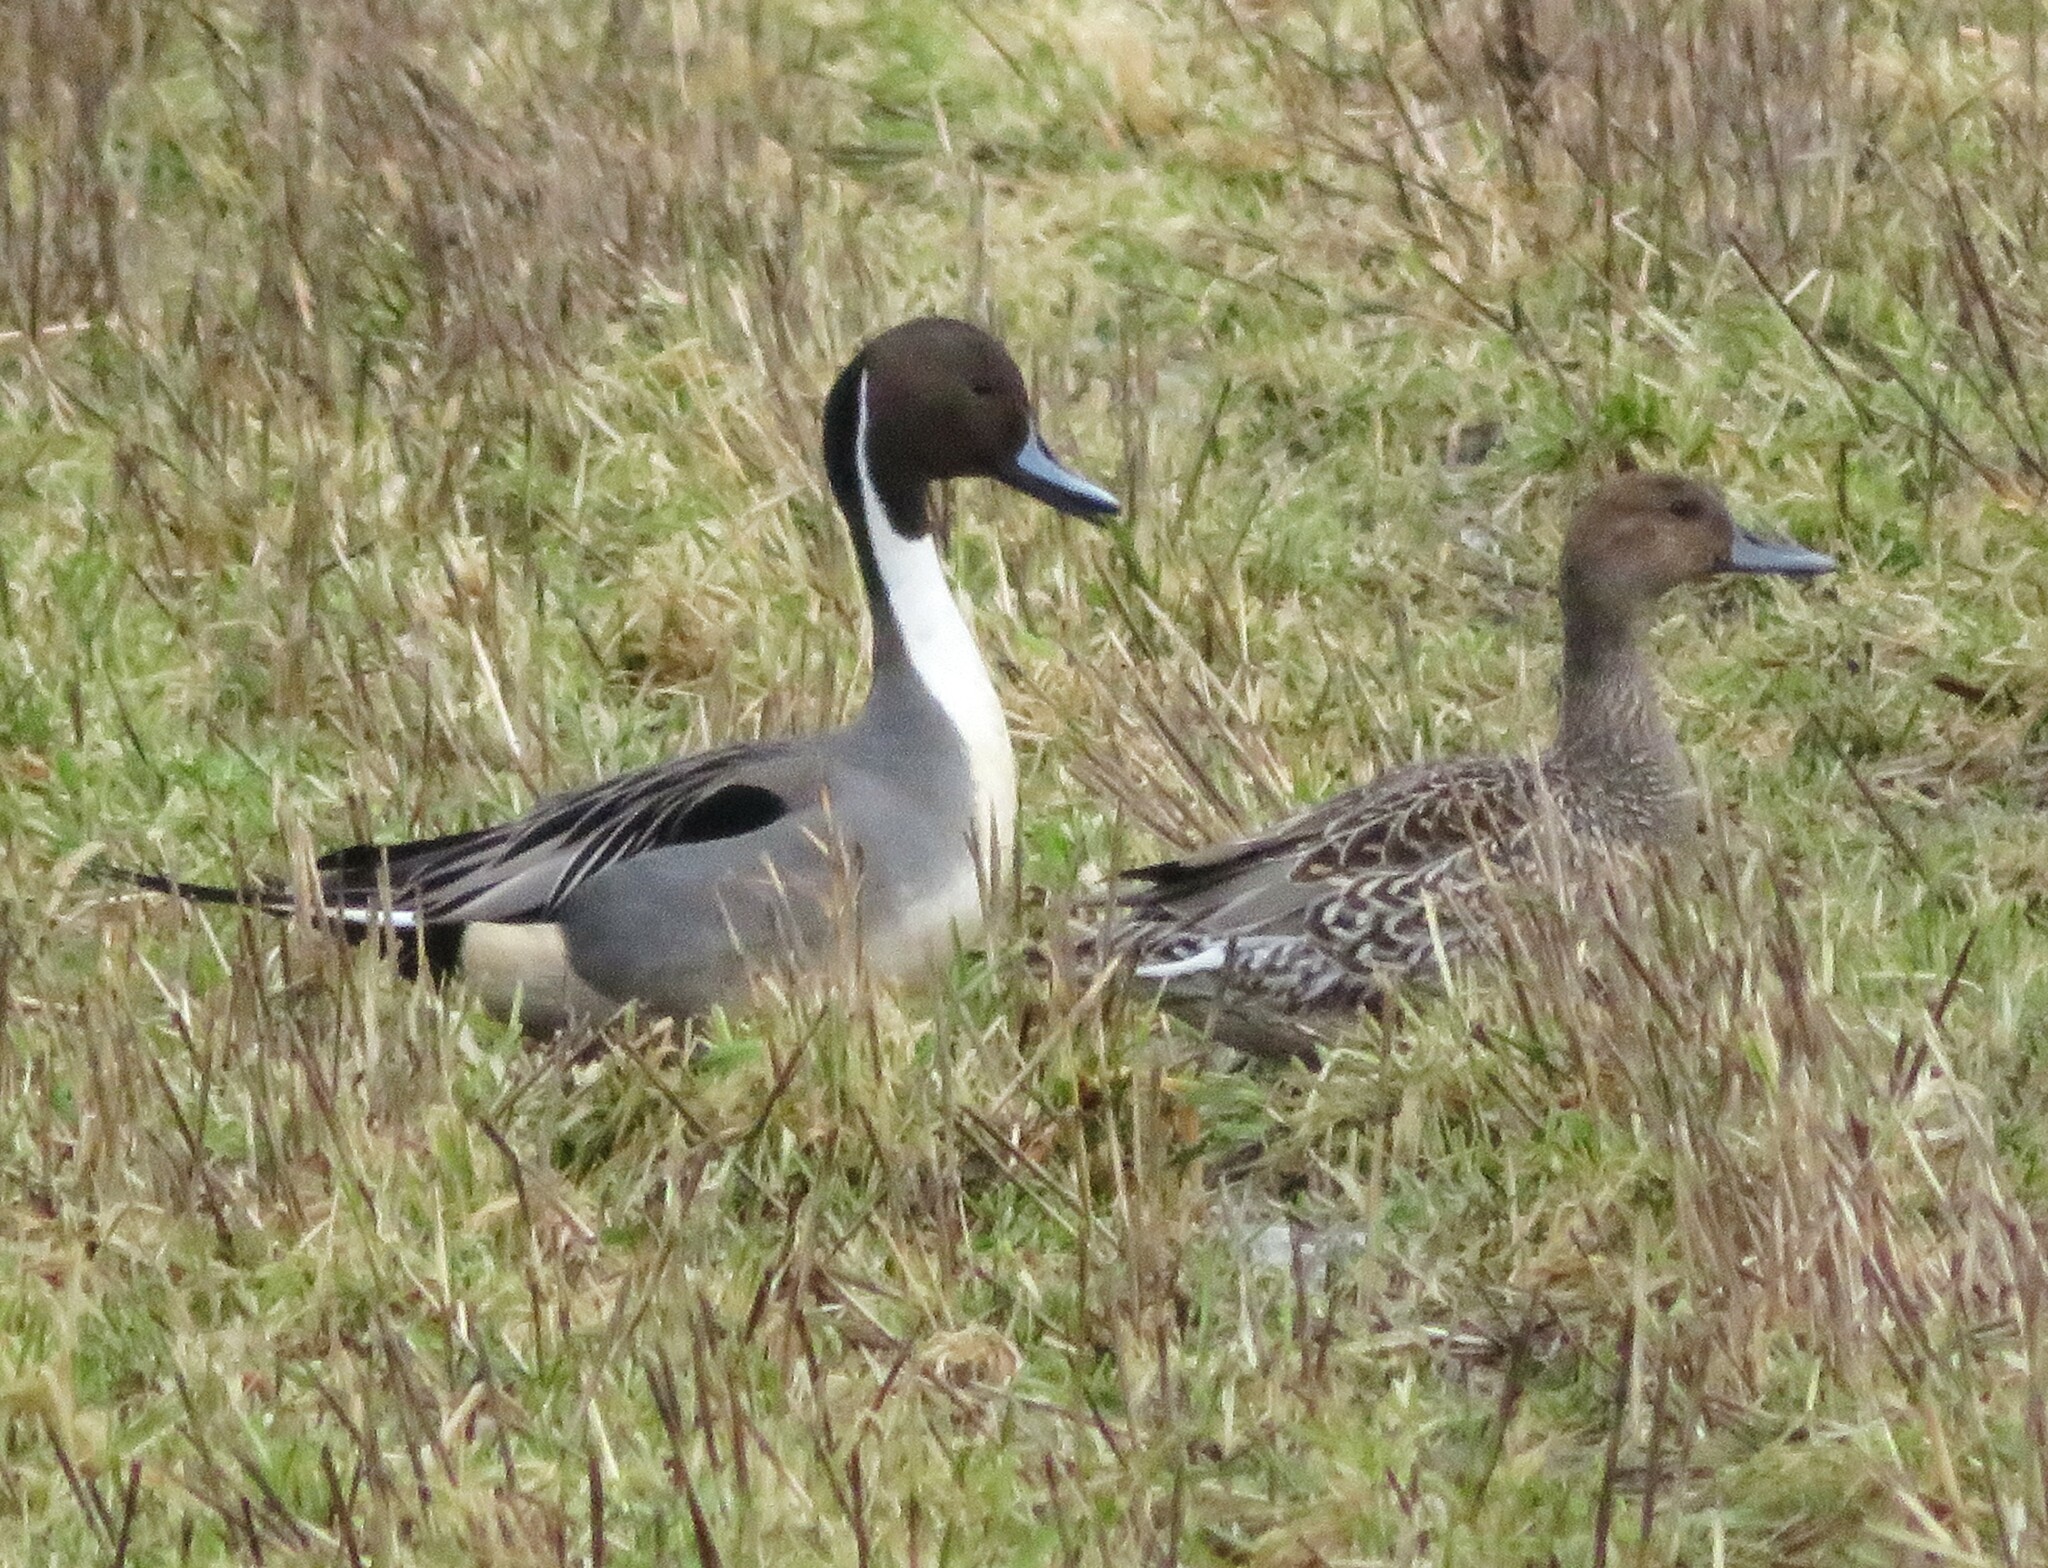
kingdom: Animalia
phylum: Chordata
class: Aves
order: Anseriformes
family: Anatidae
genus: Anas
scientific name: Anas acuta
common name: Northern pintail
